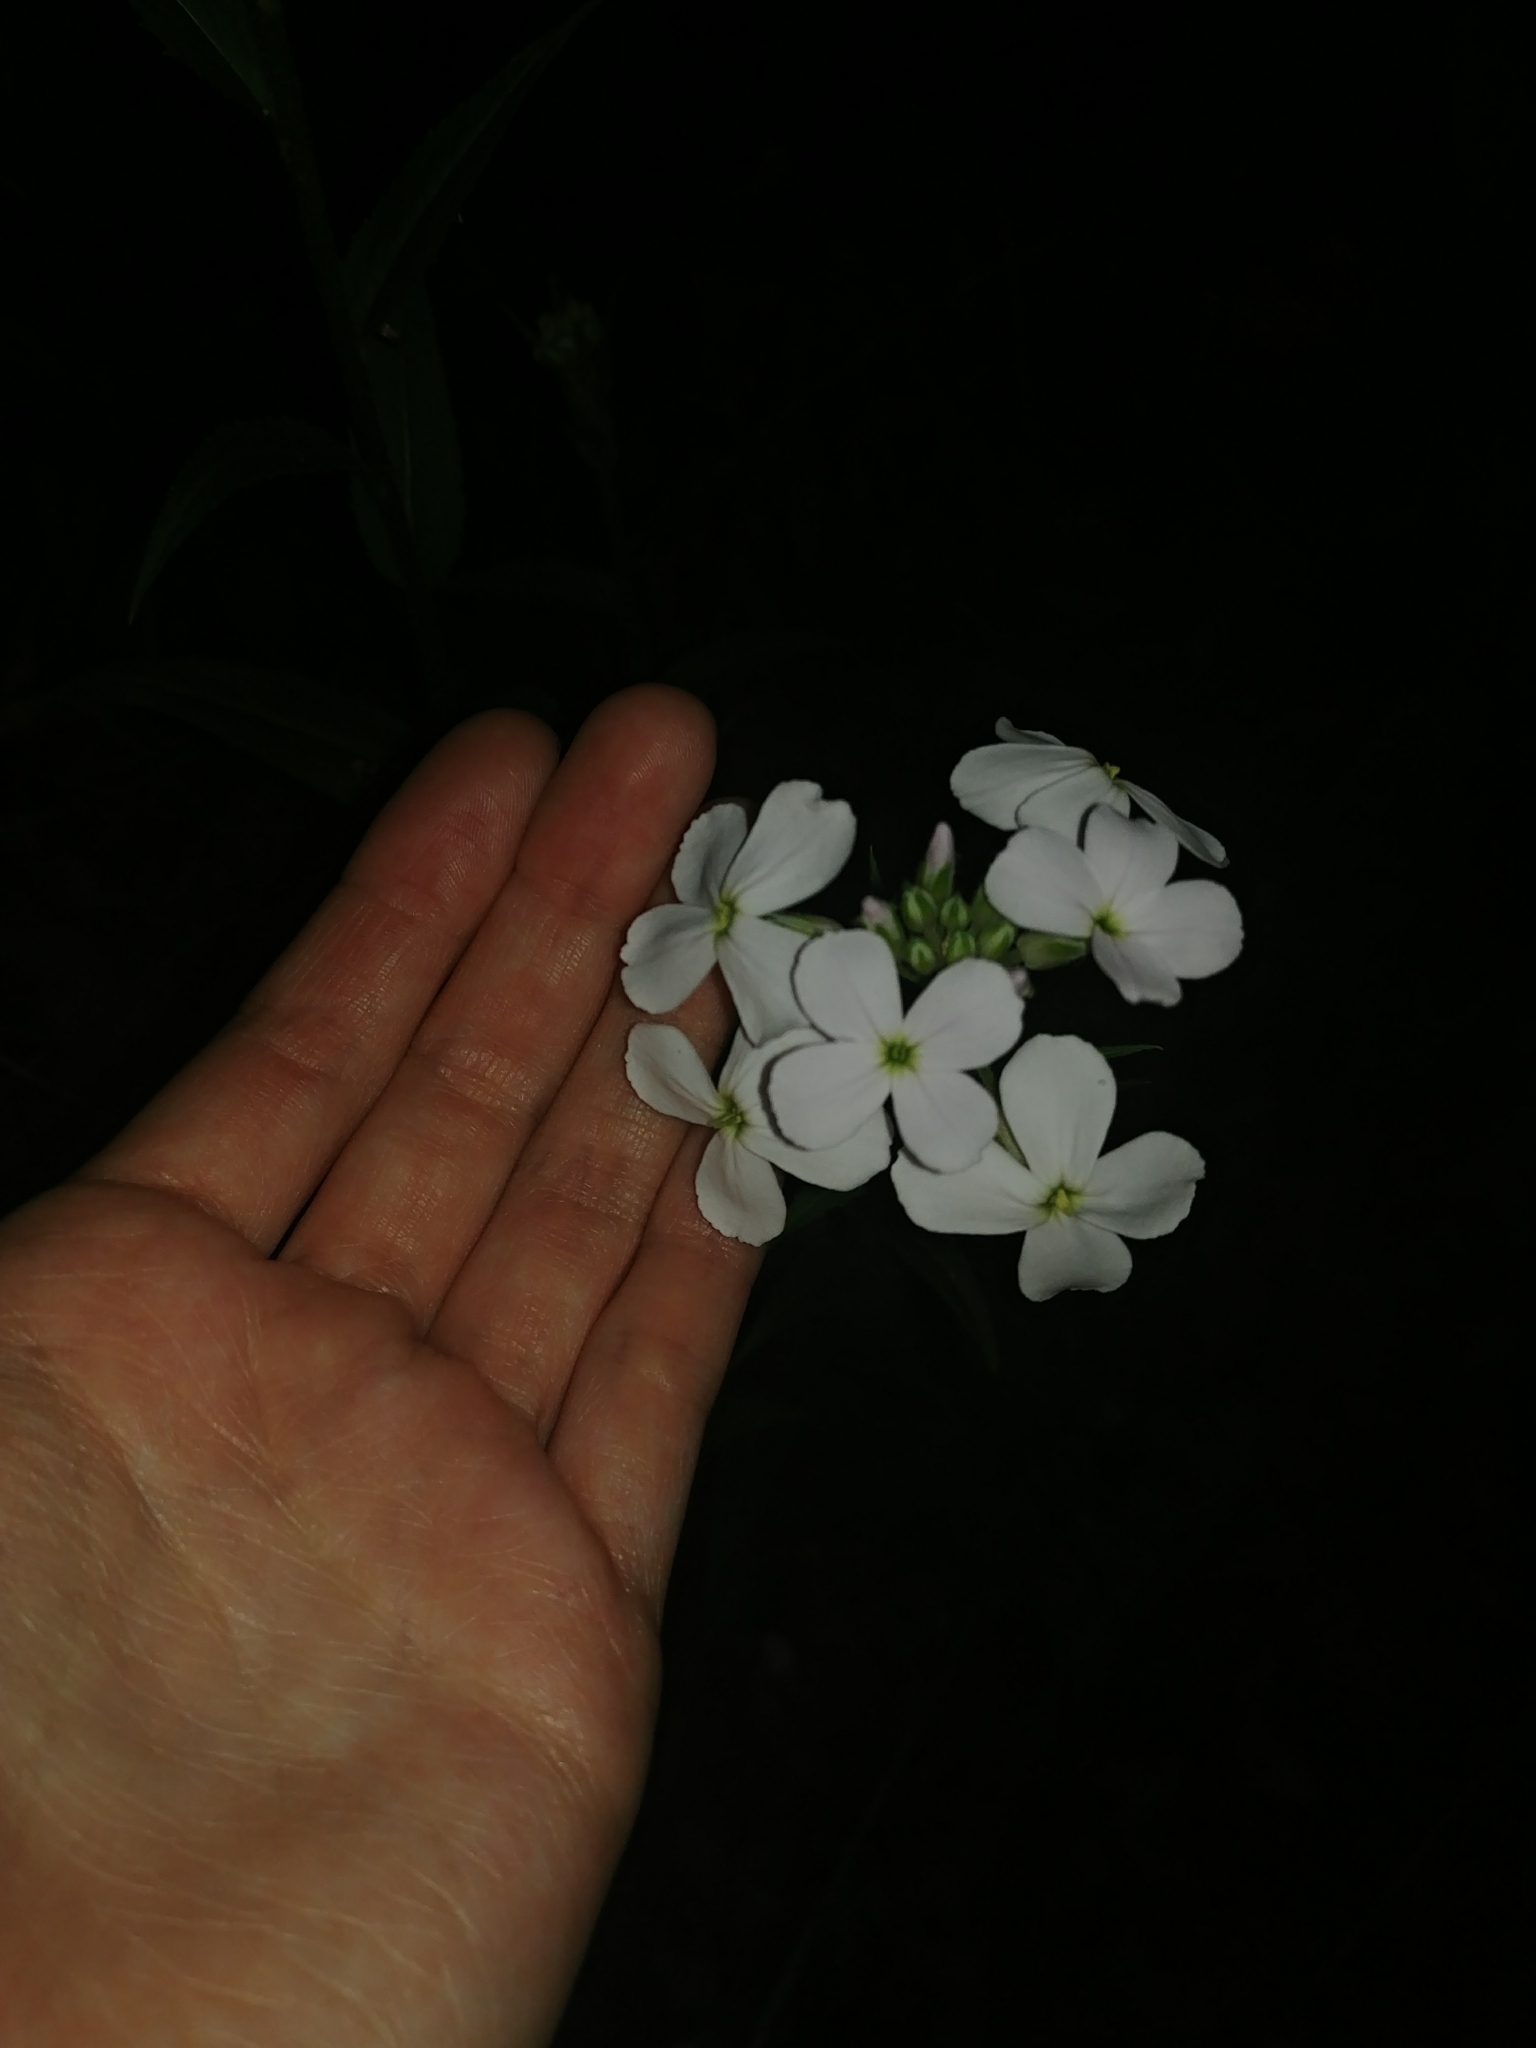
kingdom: Plantae
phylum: Tracheophyta
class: Magnoliopsida
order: Brassicales
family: Brassicaceae
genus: Hesperis
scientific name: Hesperis matronalis
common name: Dame's-violet
